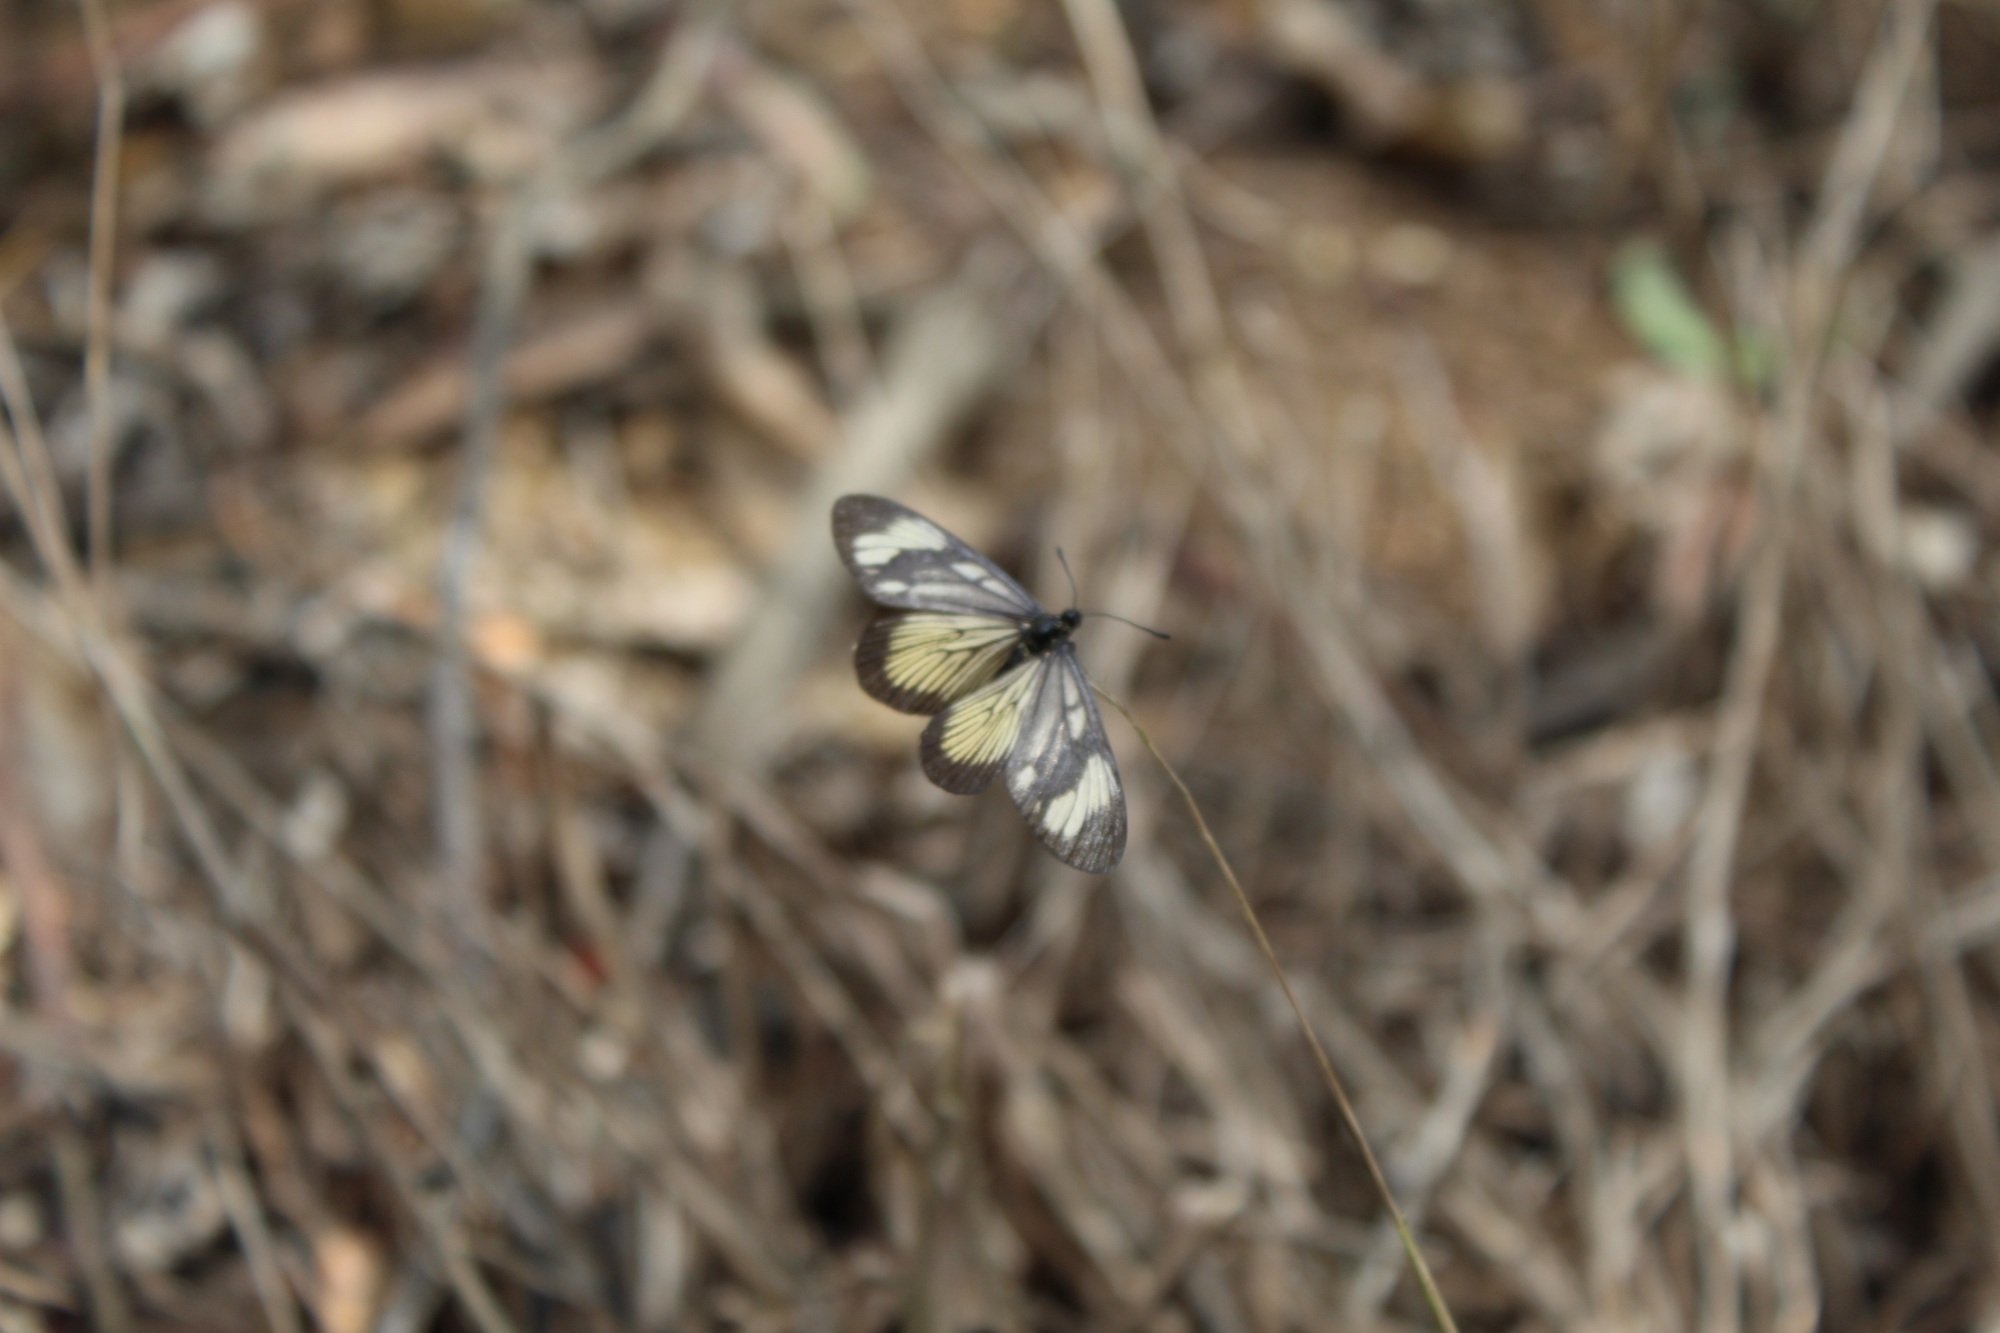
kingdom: Animalia
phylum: Arthropoda
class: Insecta
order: Lepidoptera
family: Nymphalidae
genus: Actinote
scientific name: Actinote anteas
